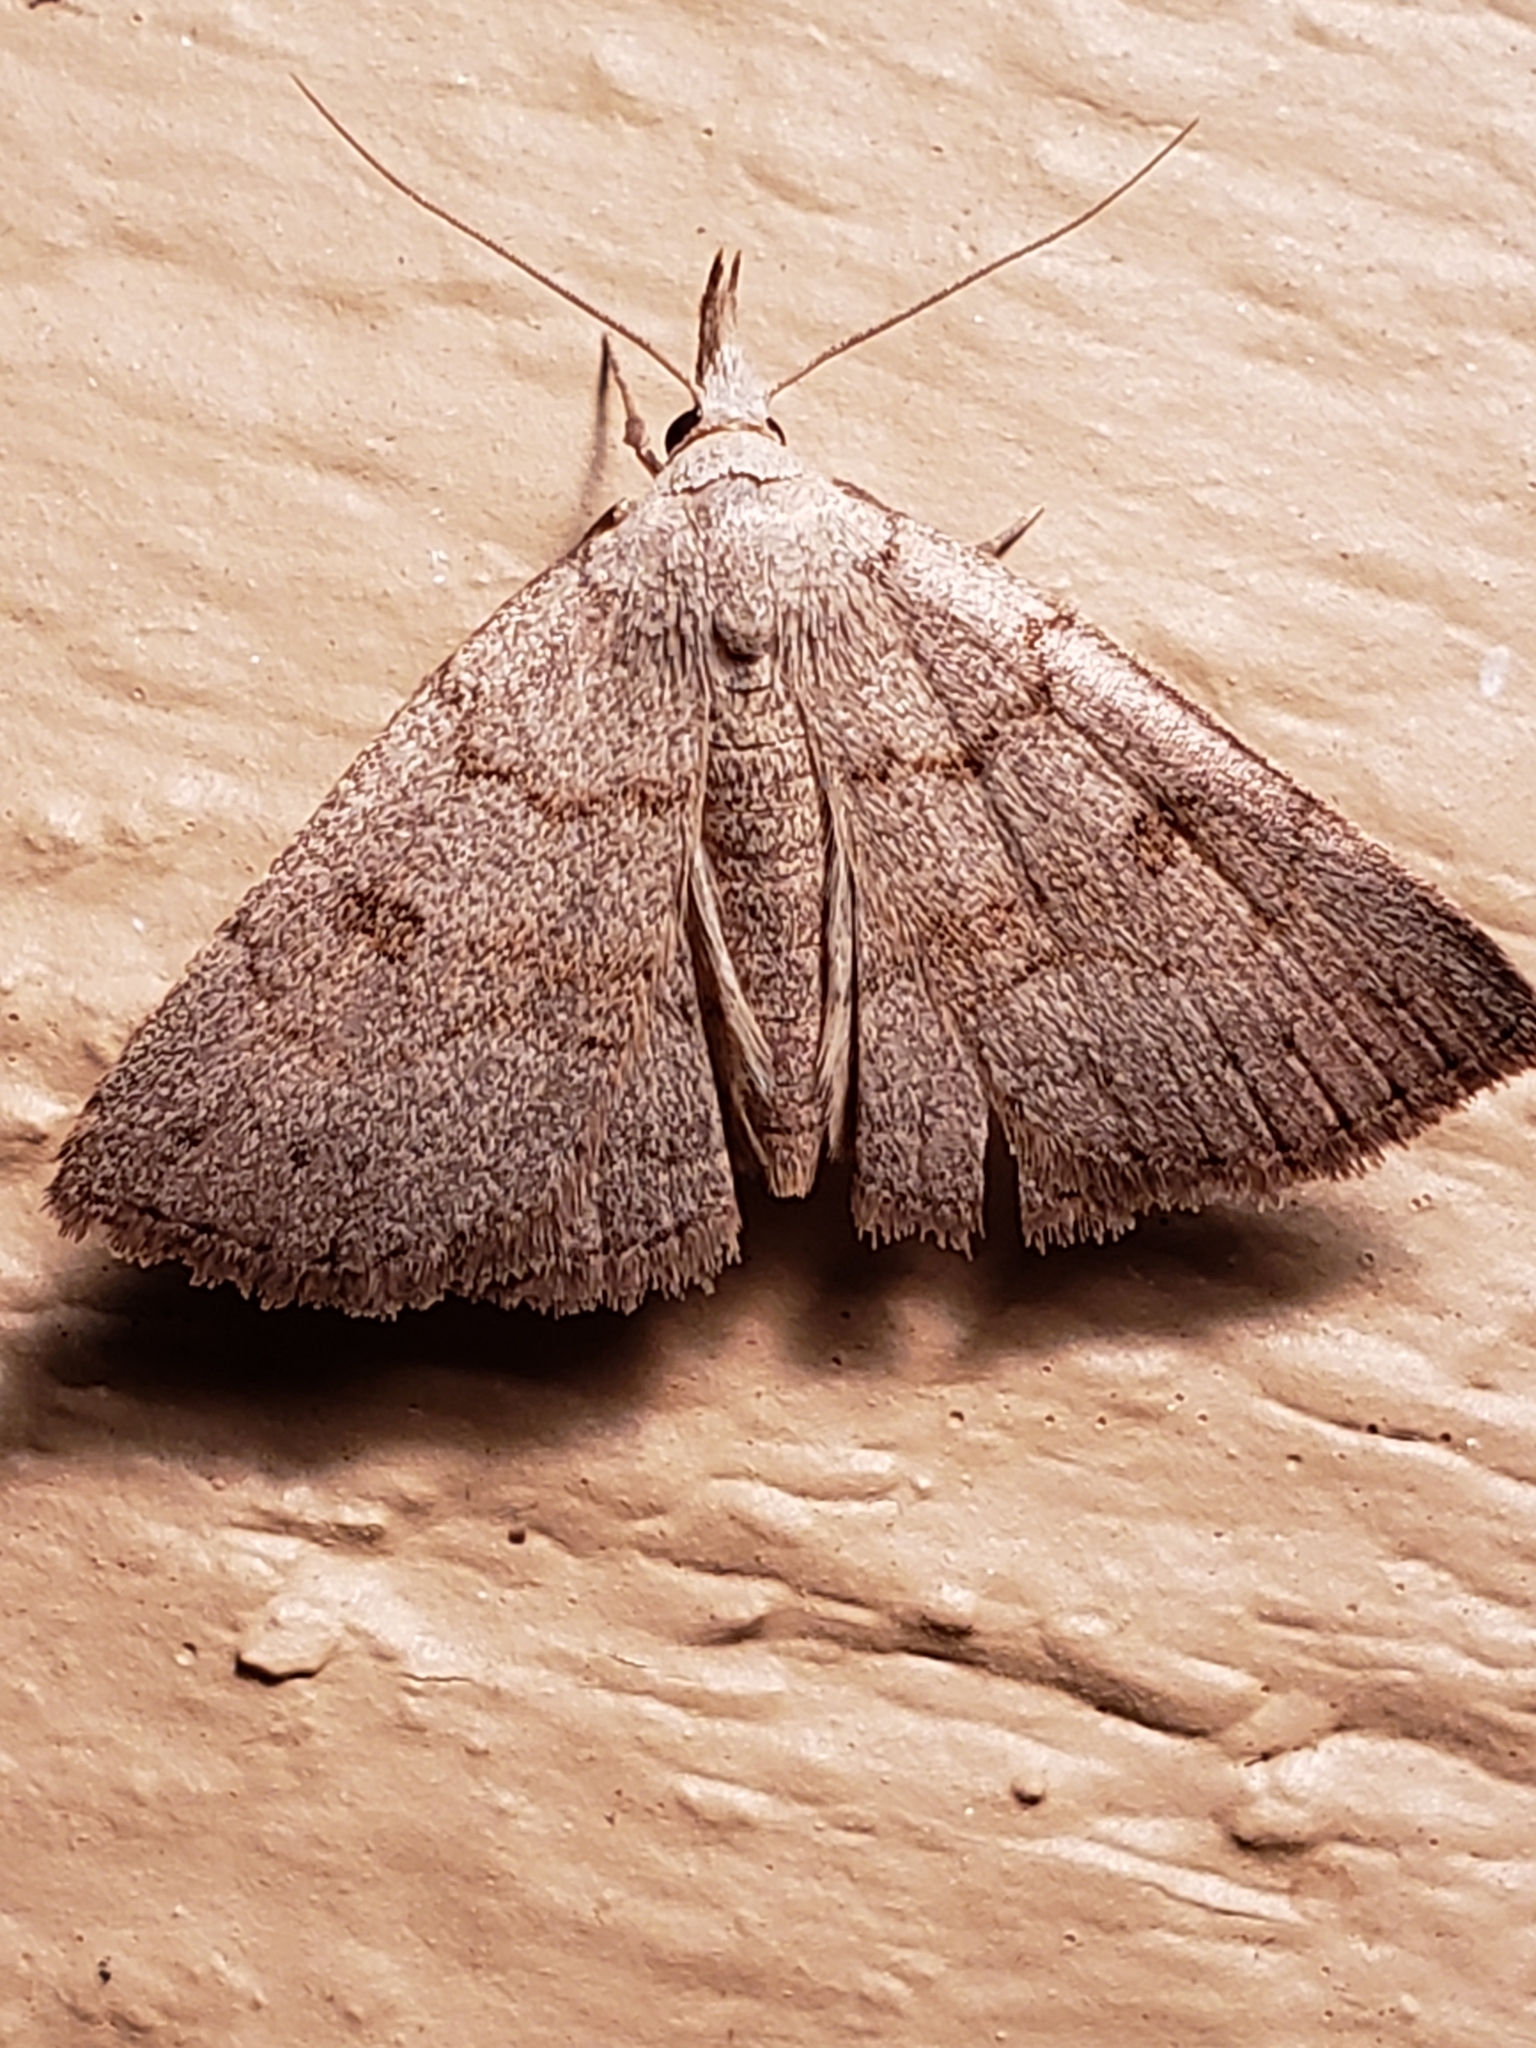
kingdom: Animalia
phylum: Arthropoda
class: Insecta
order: Lepidoptera
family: Erebidae
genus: Macrochilo
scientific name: Macrochilo morbidalis
